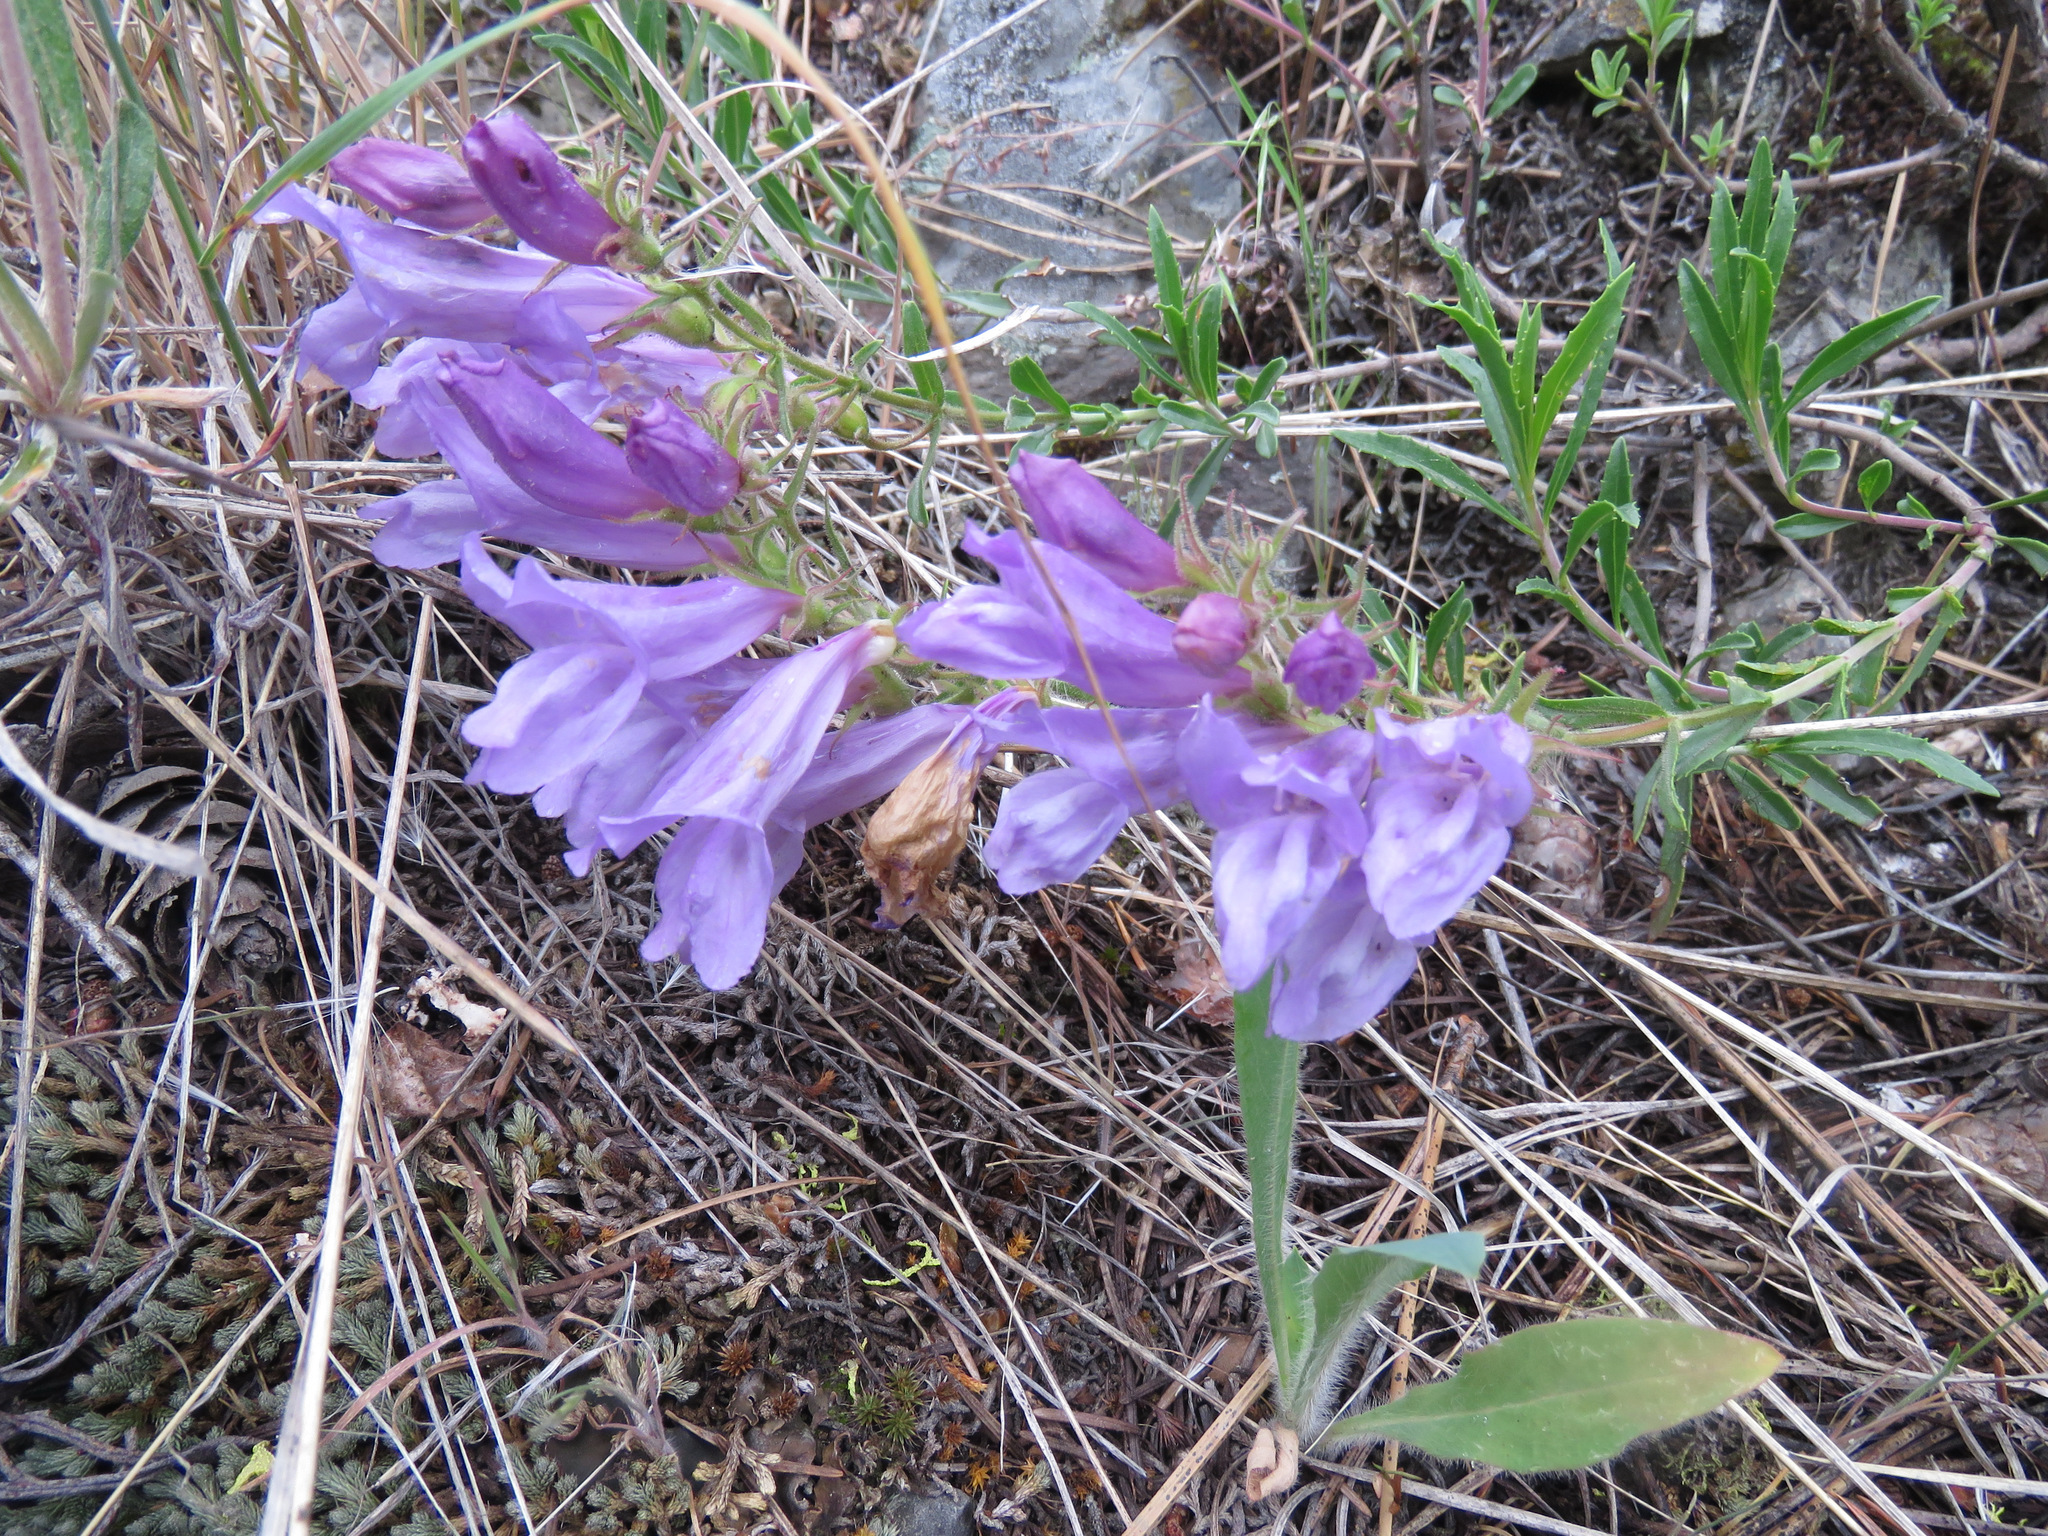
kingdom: Plantae
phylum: Tracheophyta
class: Magnoliopsida
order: Lamiales
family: Plantaginaceae
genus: Penstemon
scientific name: Penstemon fruticosus
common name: Bush penstemon
